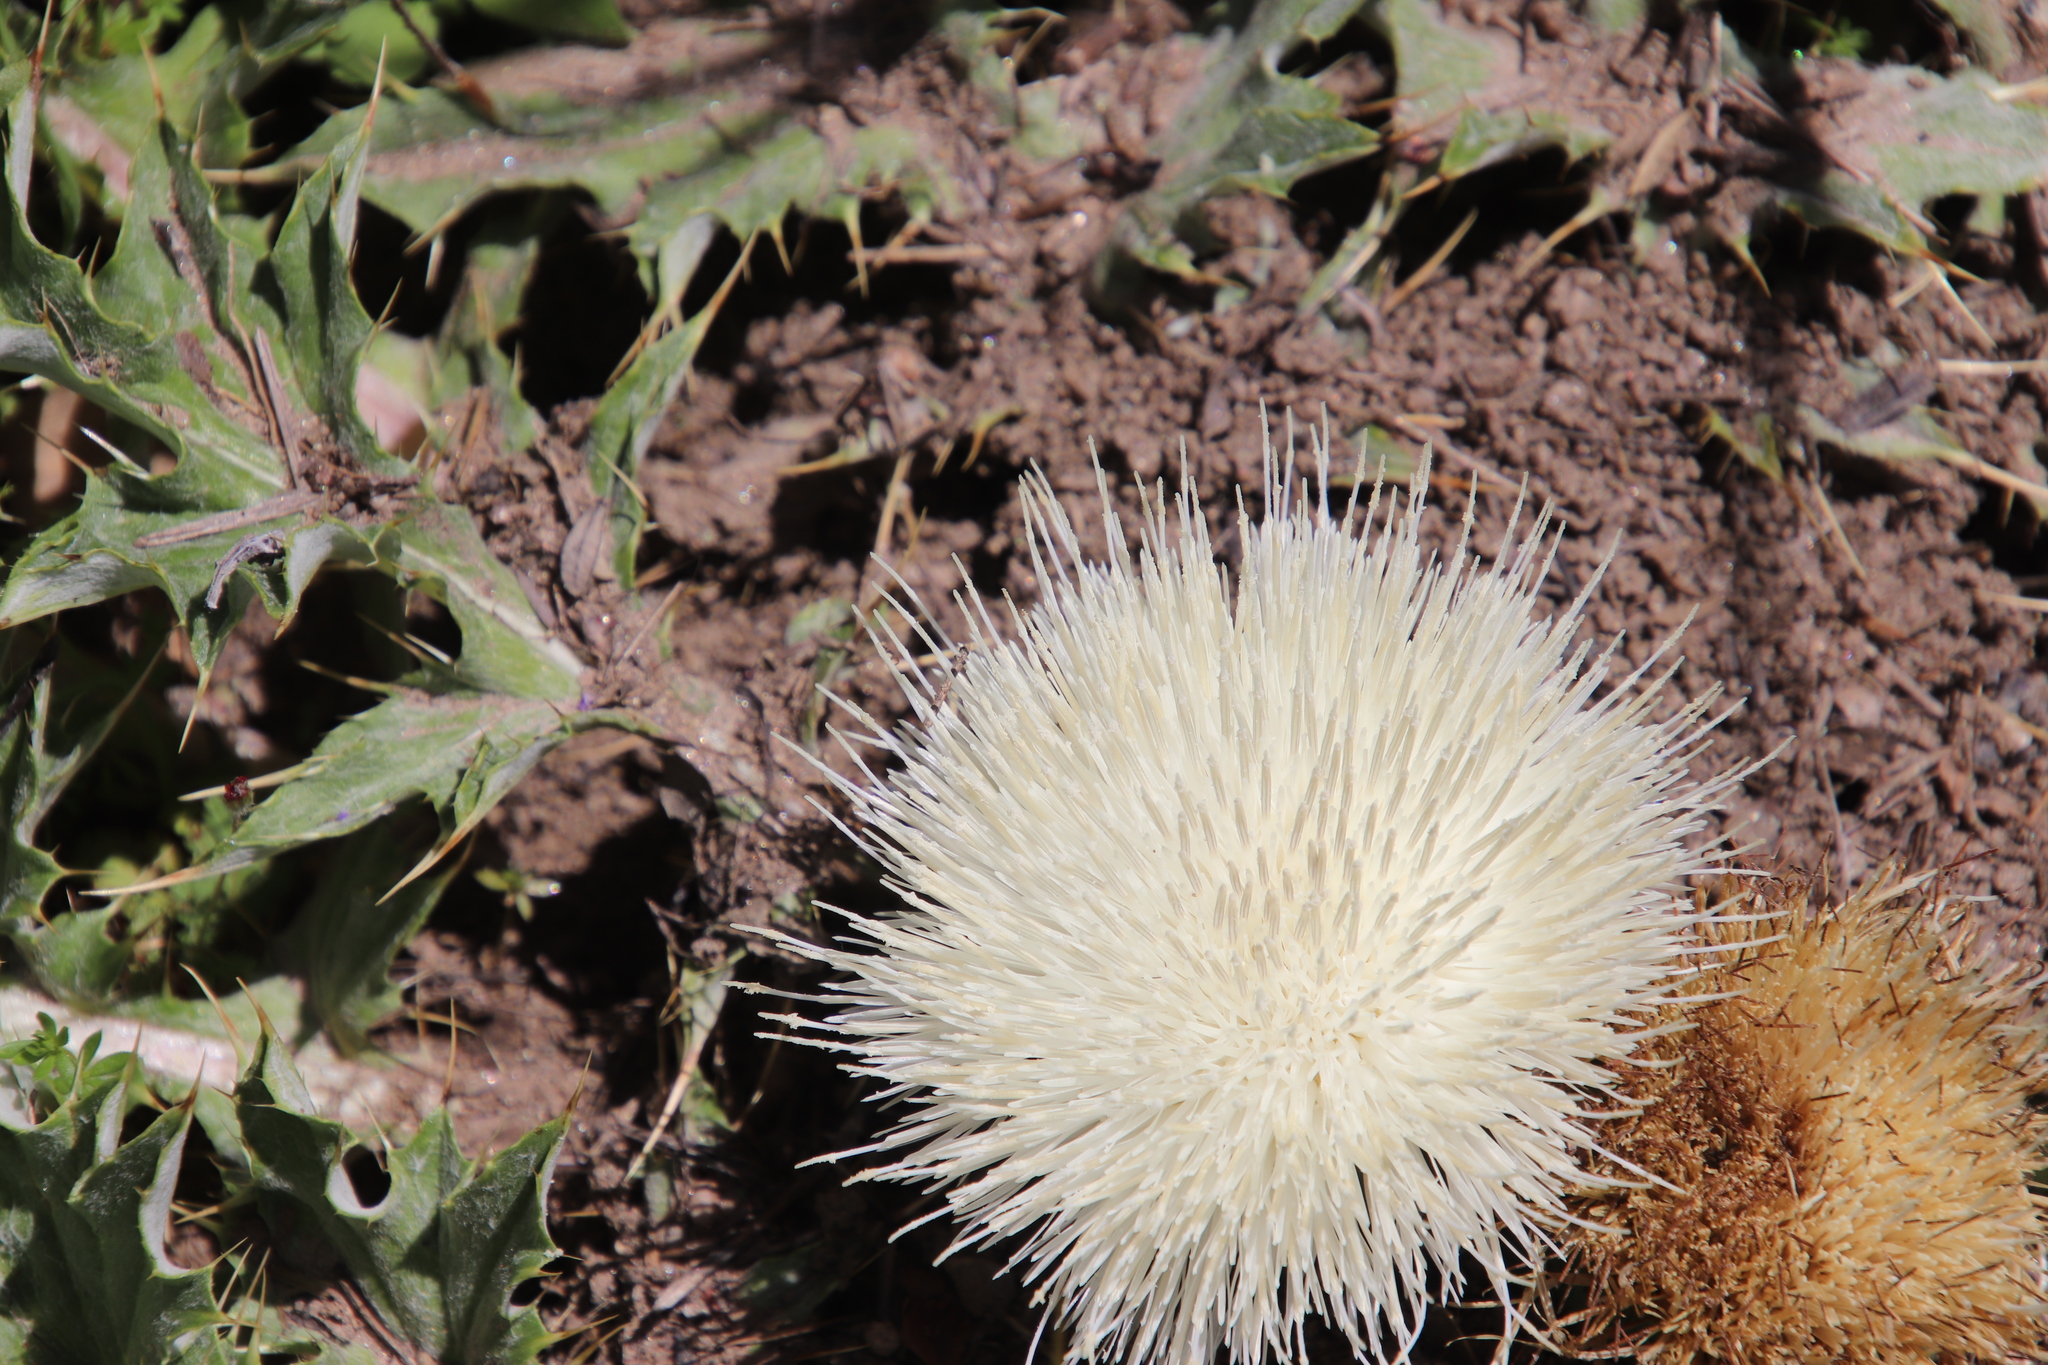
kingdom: Plantae
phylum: Tracheophyta
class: Magnoliopsida
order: Asterales
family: Asteraceae
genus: Cirsium
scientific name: Cirsium tioganum
